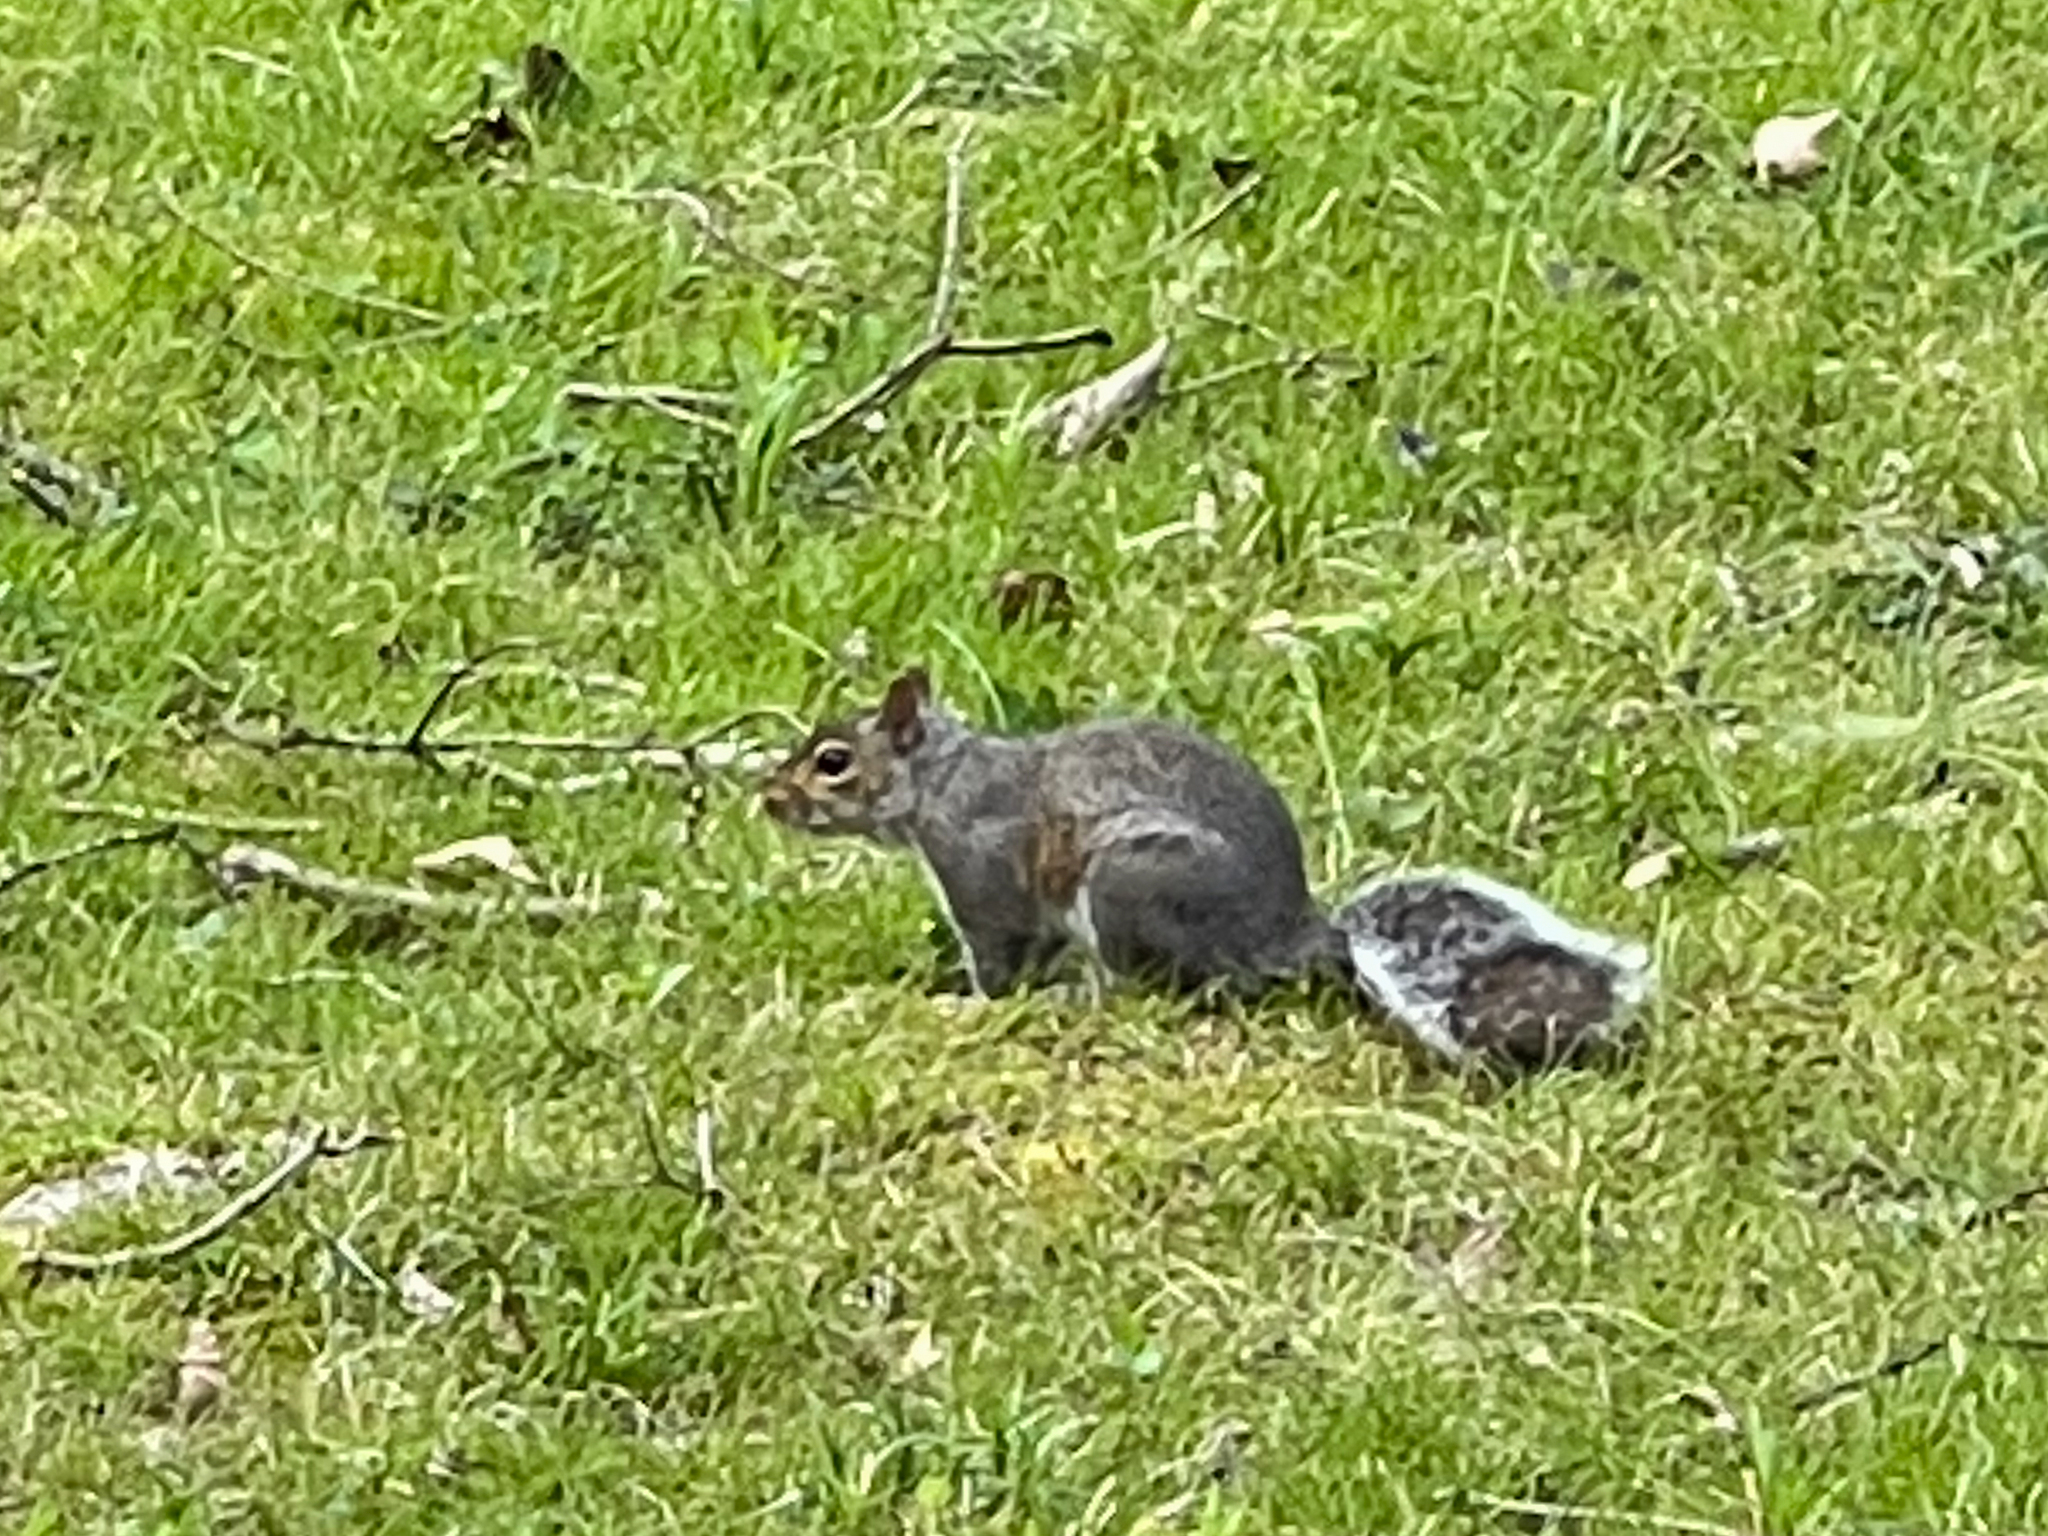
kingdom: Animalia
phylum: Chordata
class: Mammalia
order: Rodentia
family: Sciuridae
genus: Sciurus
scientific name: Sciurus carolinensis
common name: Eastern gray squirrel
